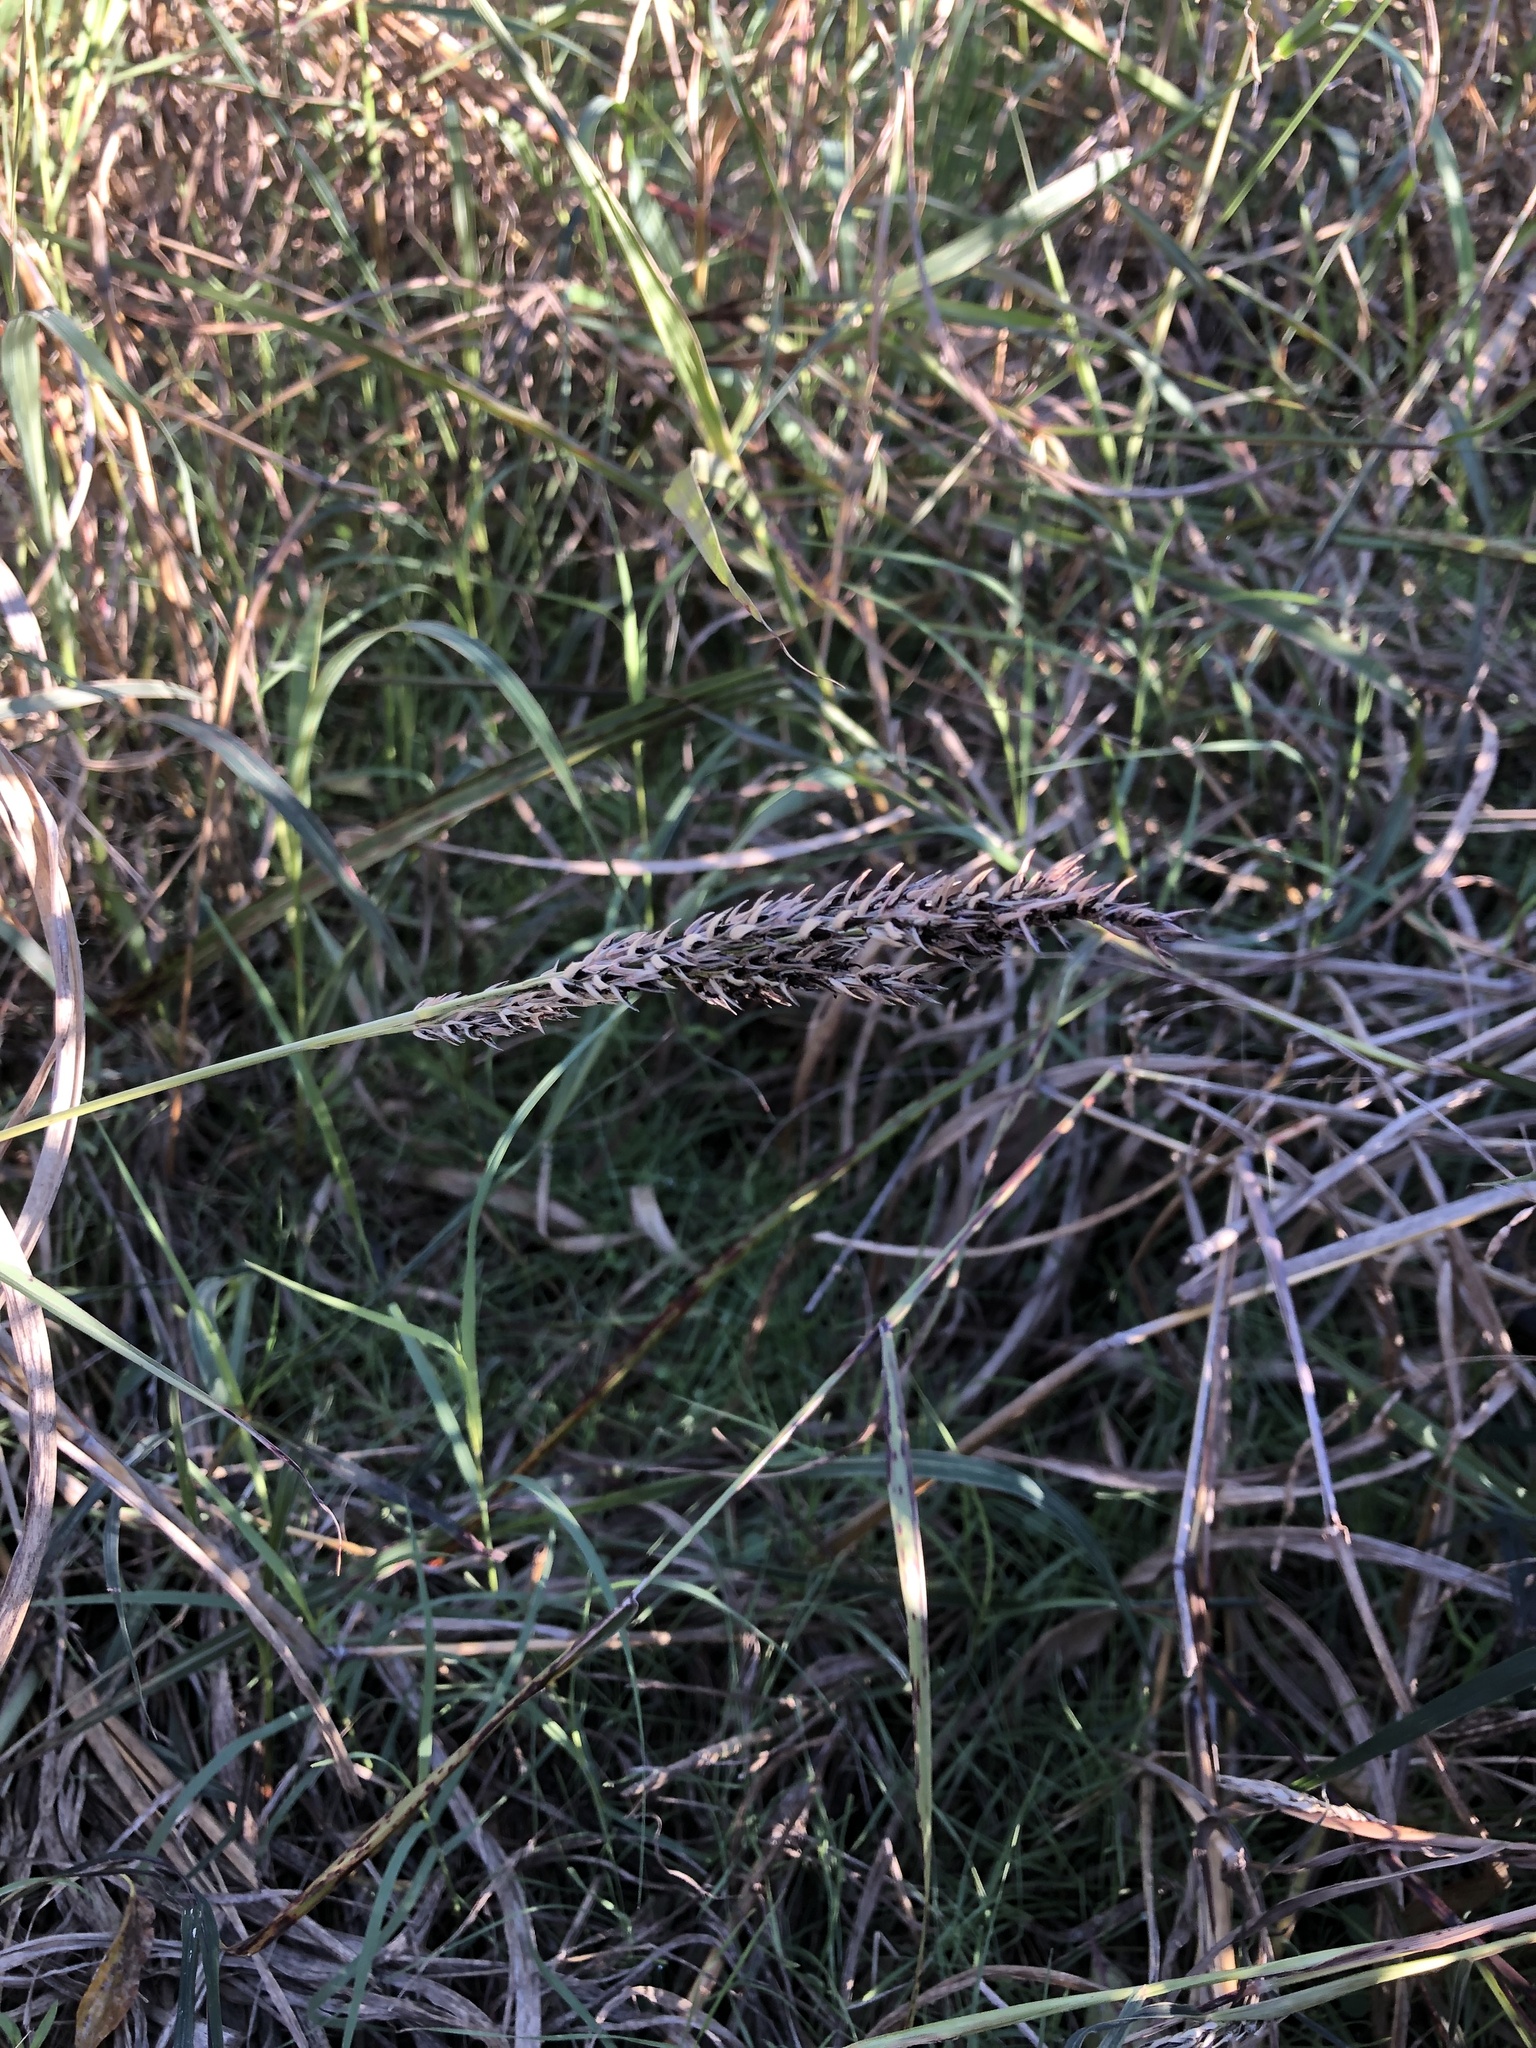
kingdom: Plantae
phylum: Tracheophyta
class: Liliopsida
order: Poales
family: Poaceae
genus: Sorghum
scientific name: Sorghum halepense
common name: Johnson-grass
